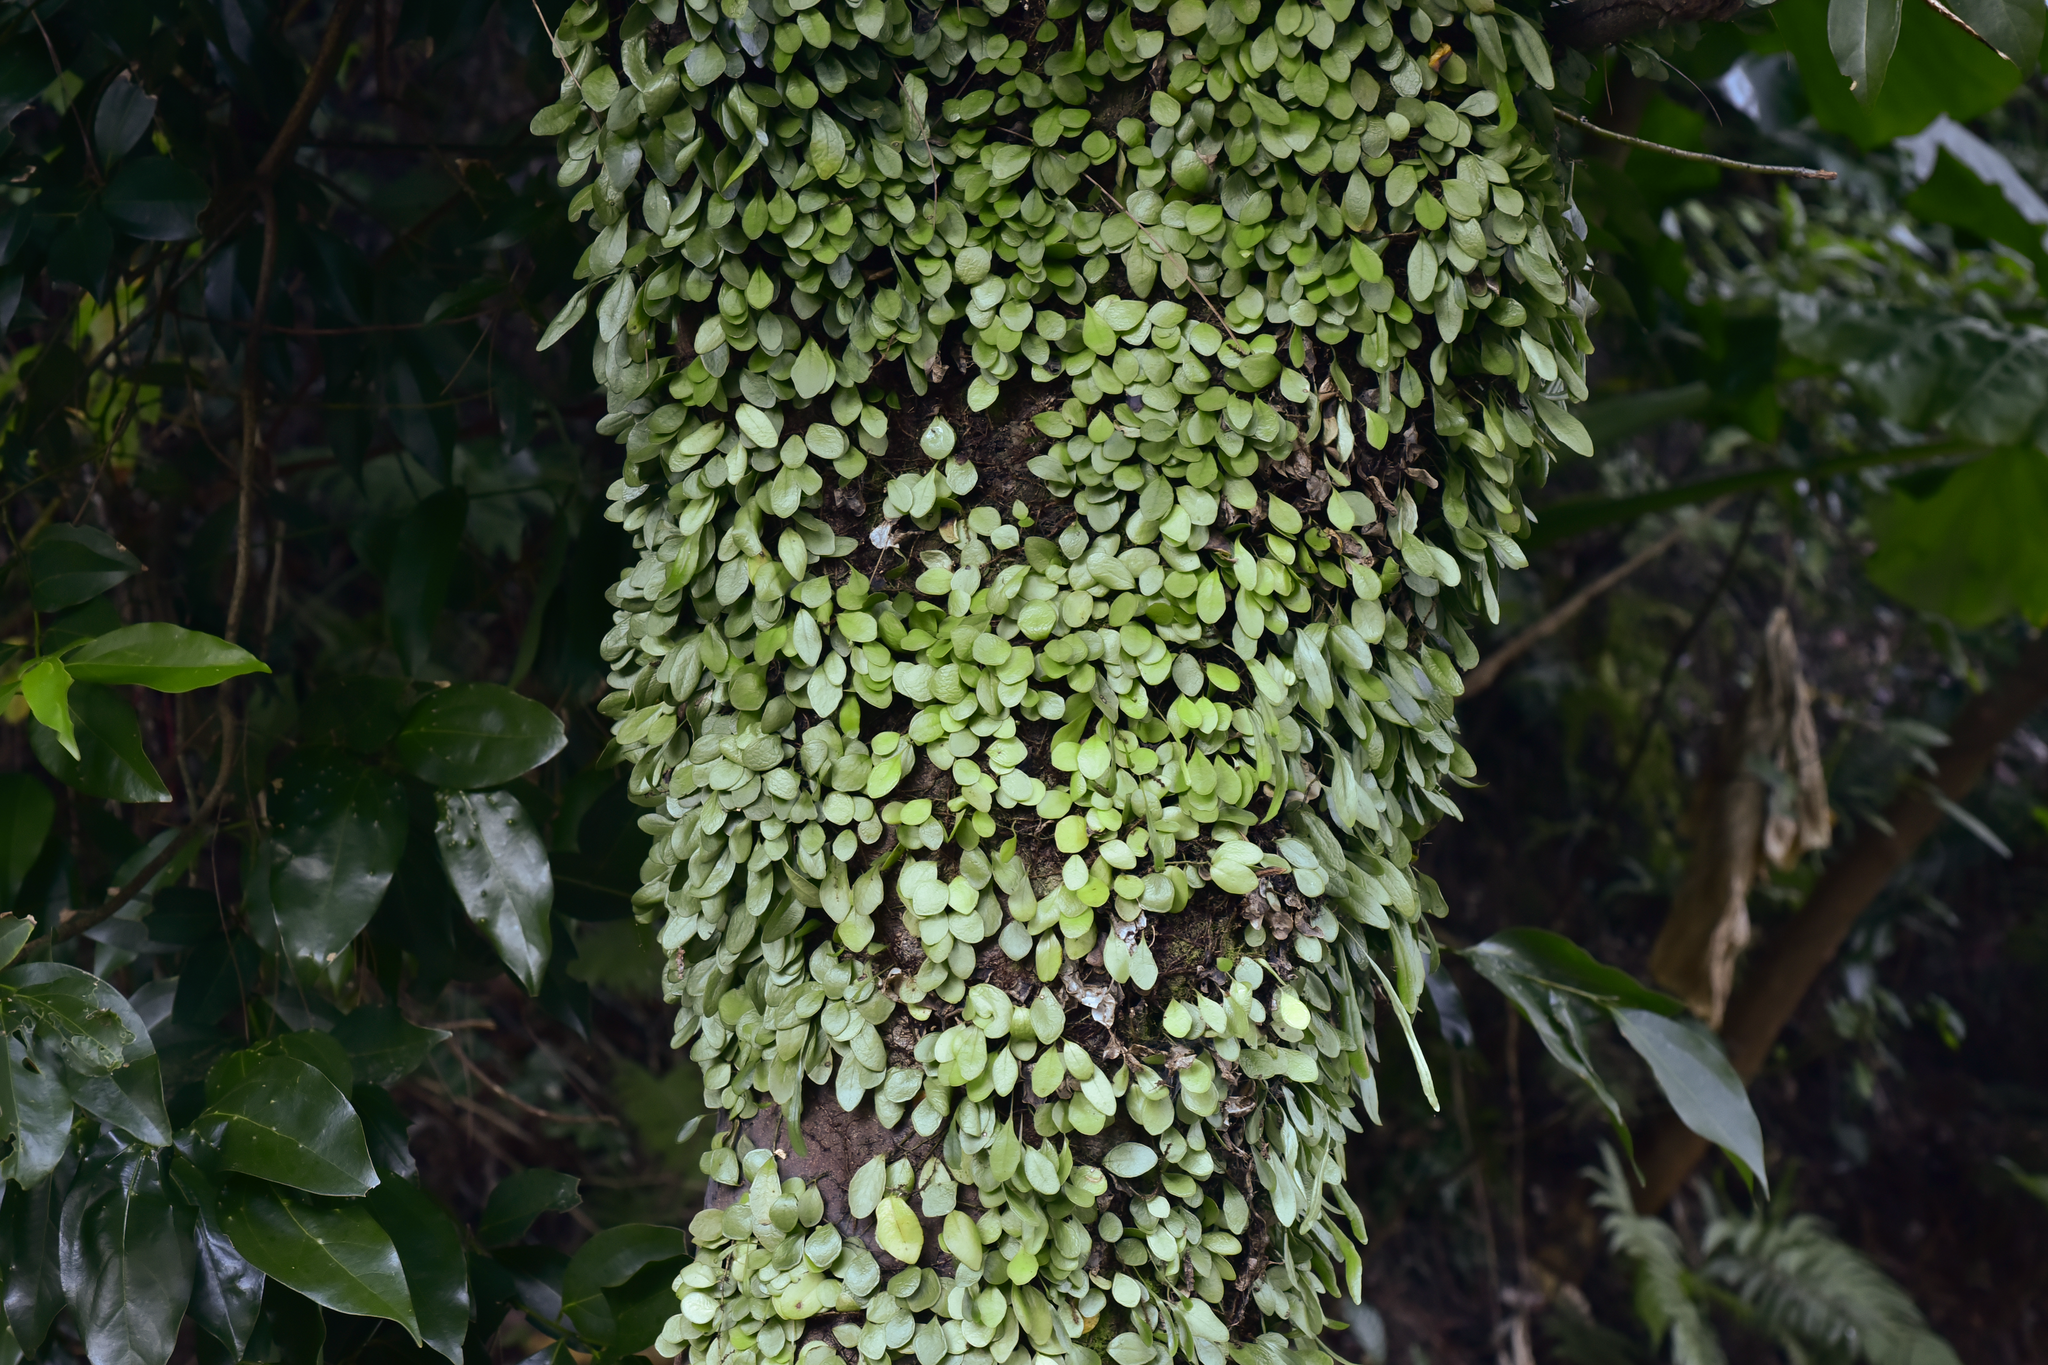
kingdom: Plantae
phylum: Tracheophyta
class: Polypodiopsida
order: Polypodiales
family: Polypodiaceae
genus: Lepisorus
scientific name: Lepisorus microphyllus
